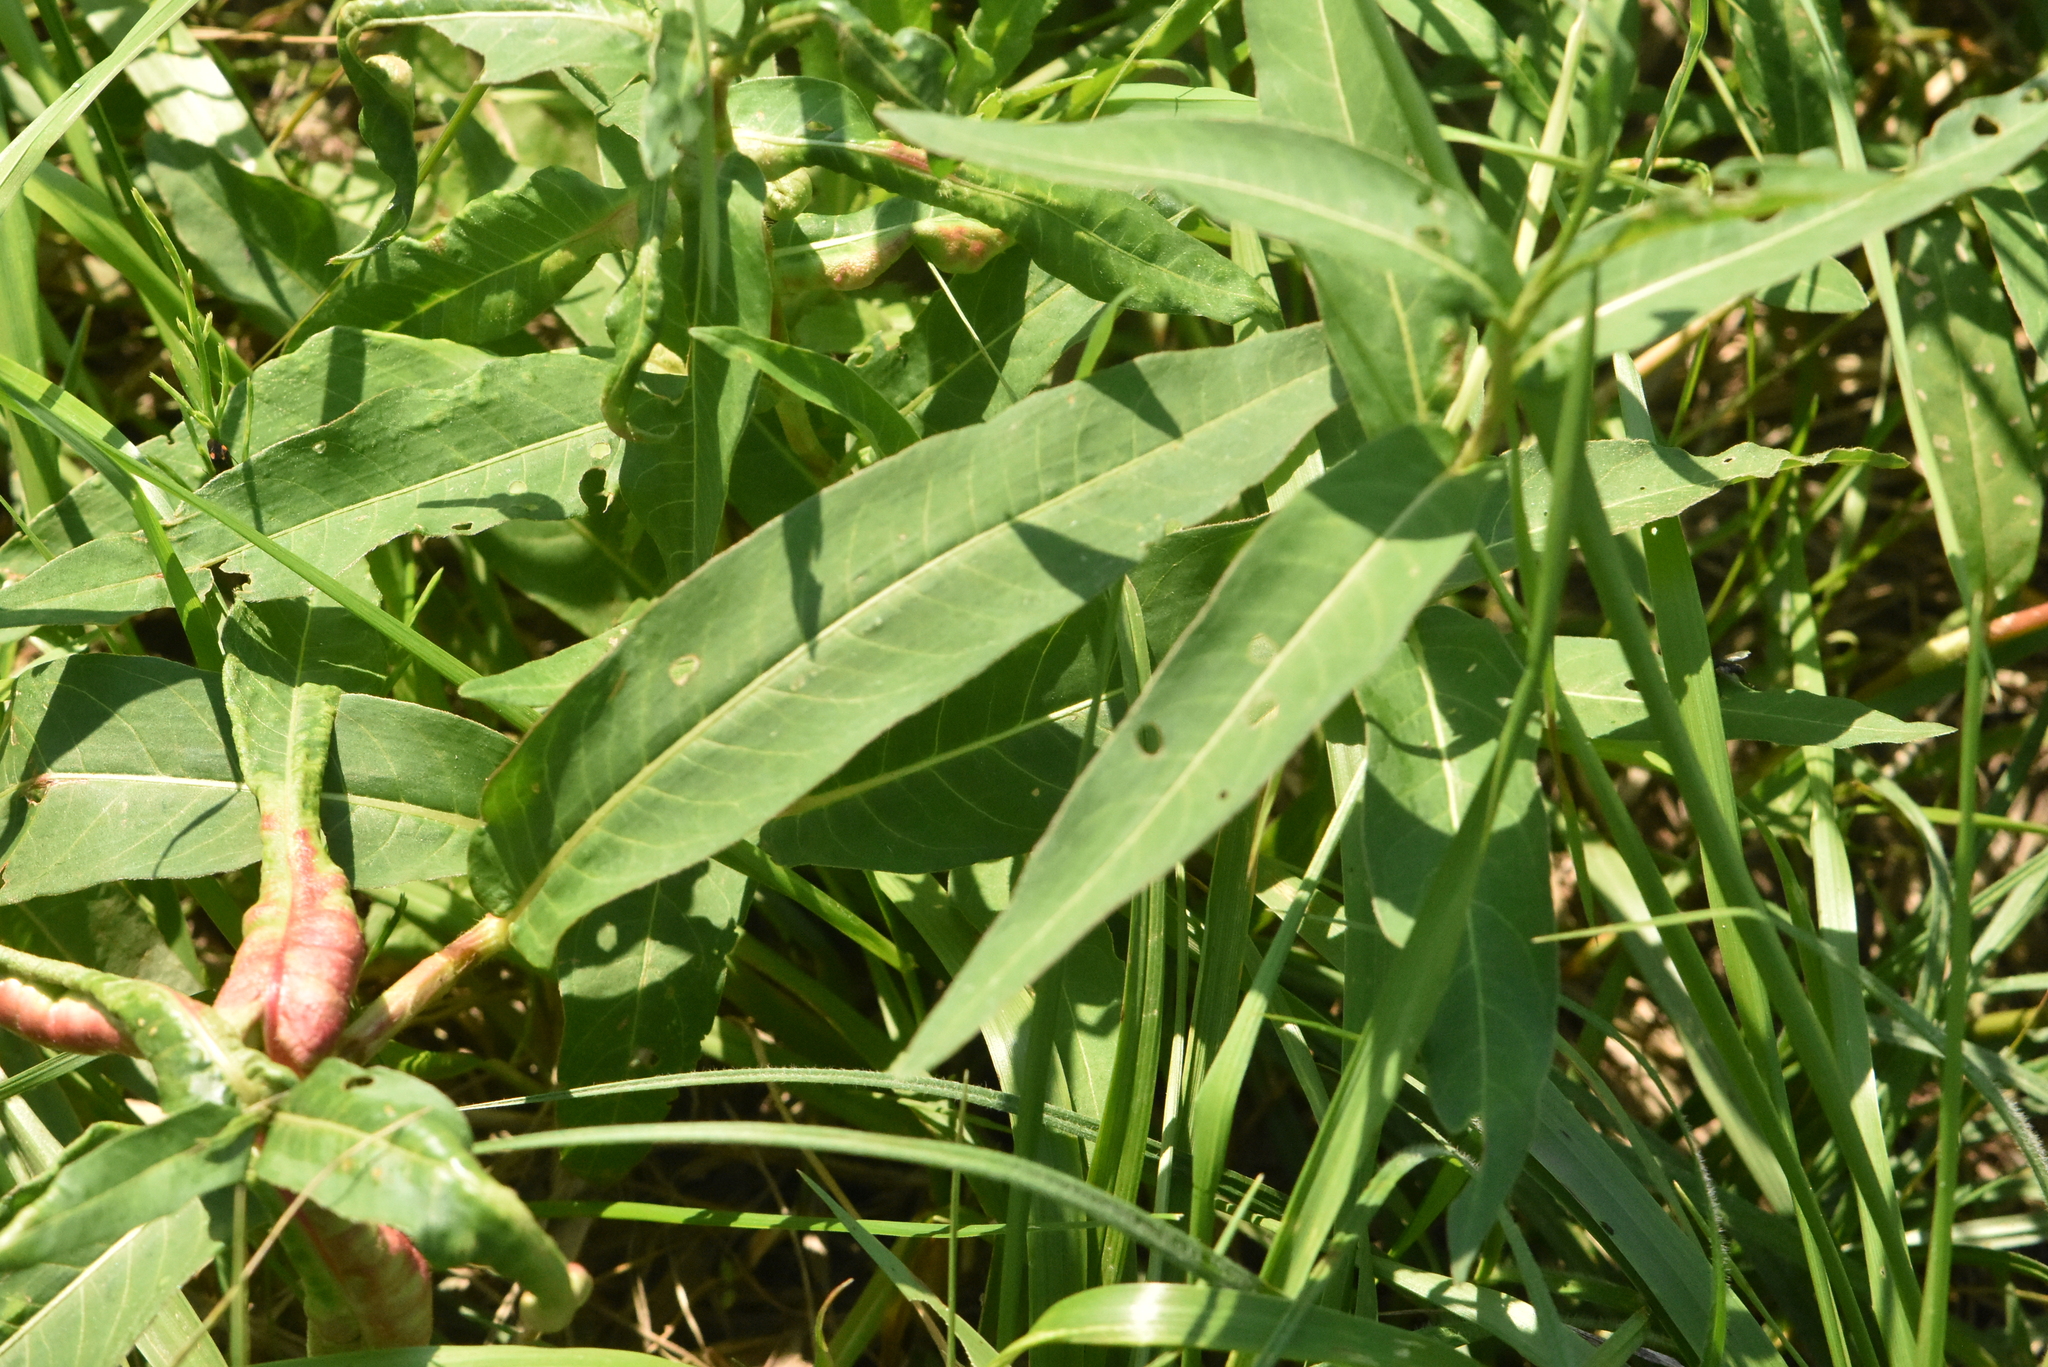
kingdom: Plantae
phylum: Tracheophyta
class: Magnoliopsida
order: Caryophyllales
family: Polygonaceae
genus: Persicaria
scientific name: Persicaria amphibia
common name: Amphibious bistort
